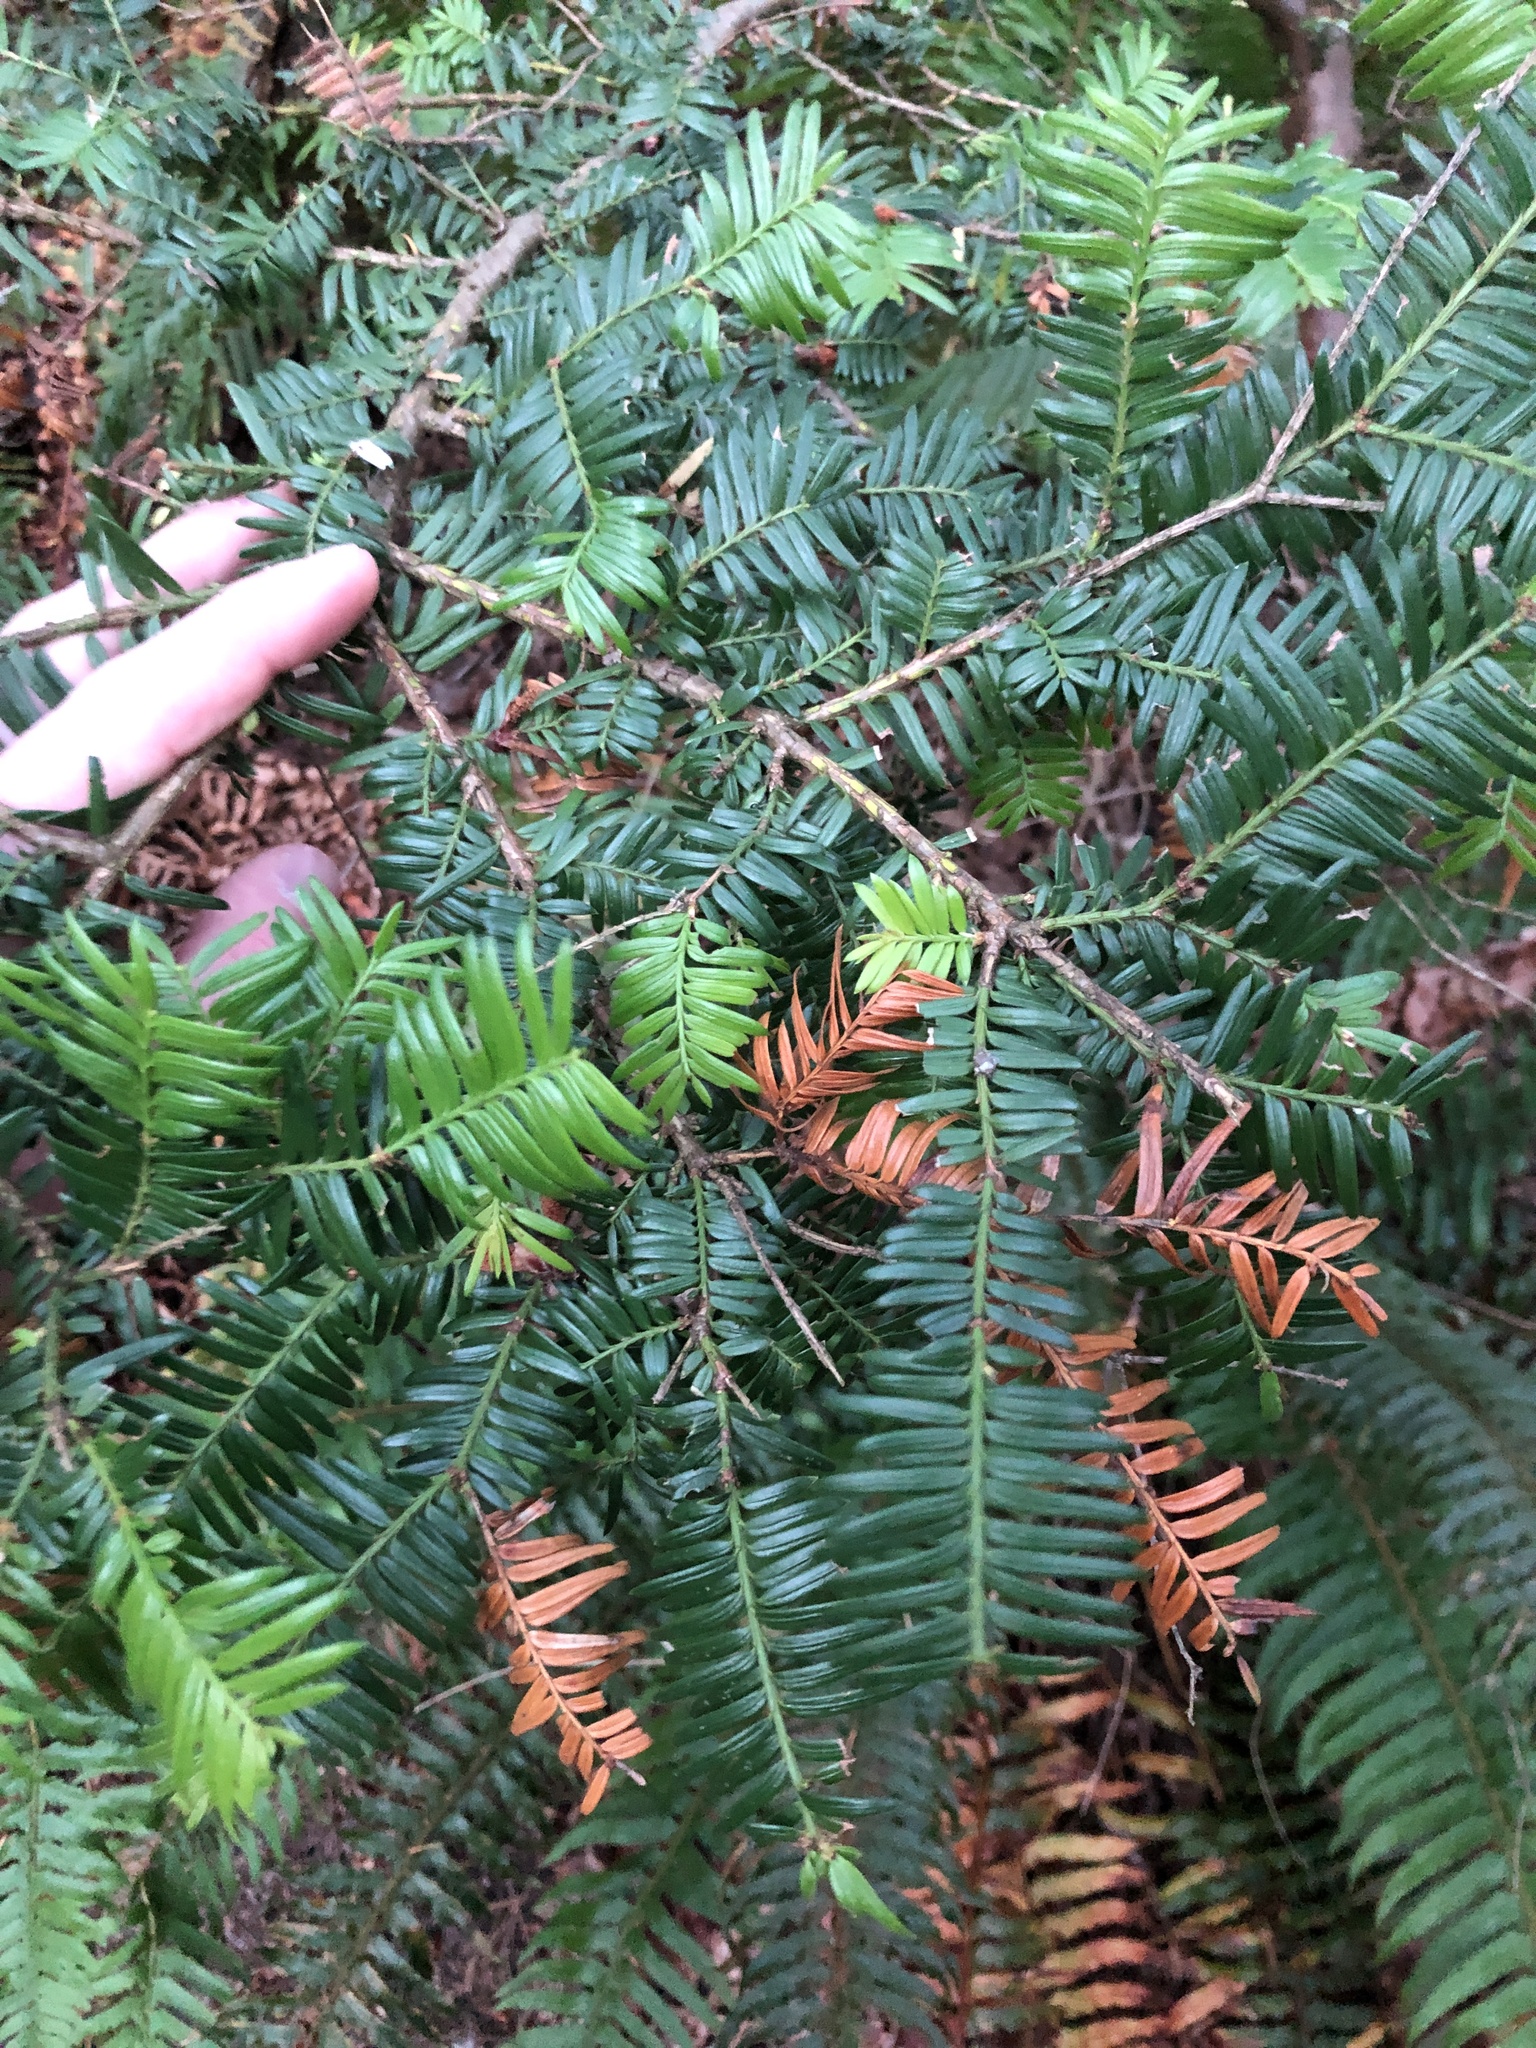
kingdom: Plantae
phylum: Tracheophyta
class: Pinopsida
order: Pinales
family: Taxaceae
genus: Taxus
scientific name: Taxus brevifolia
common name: Pacific yew
